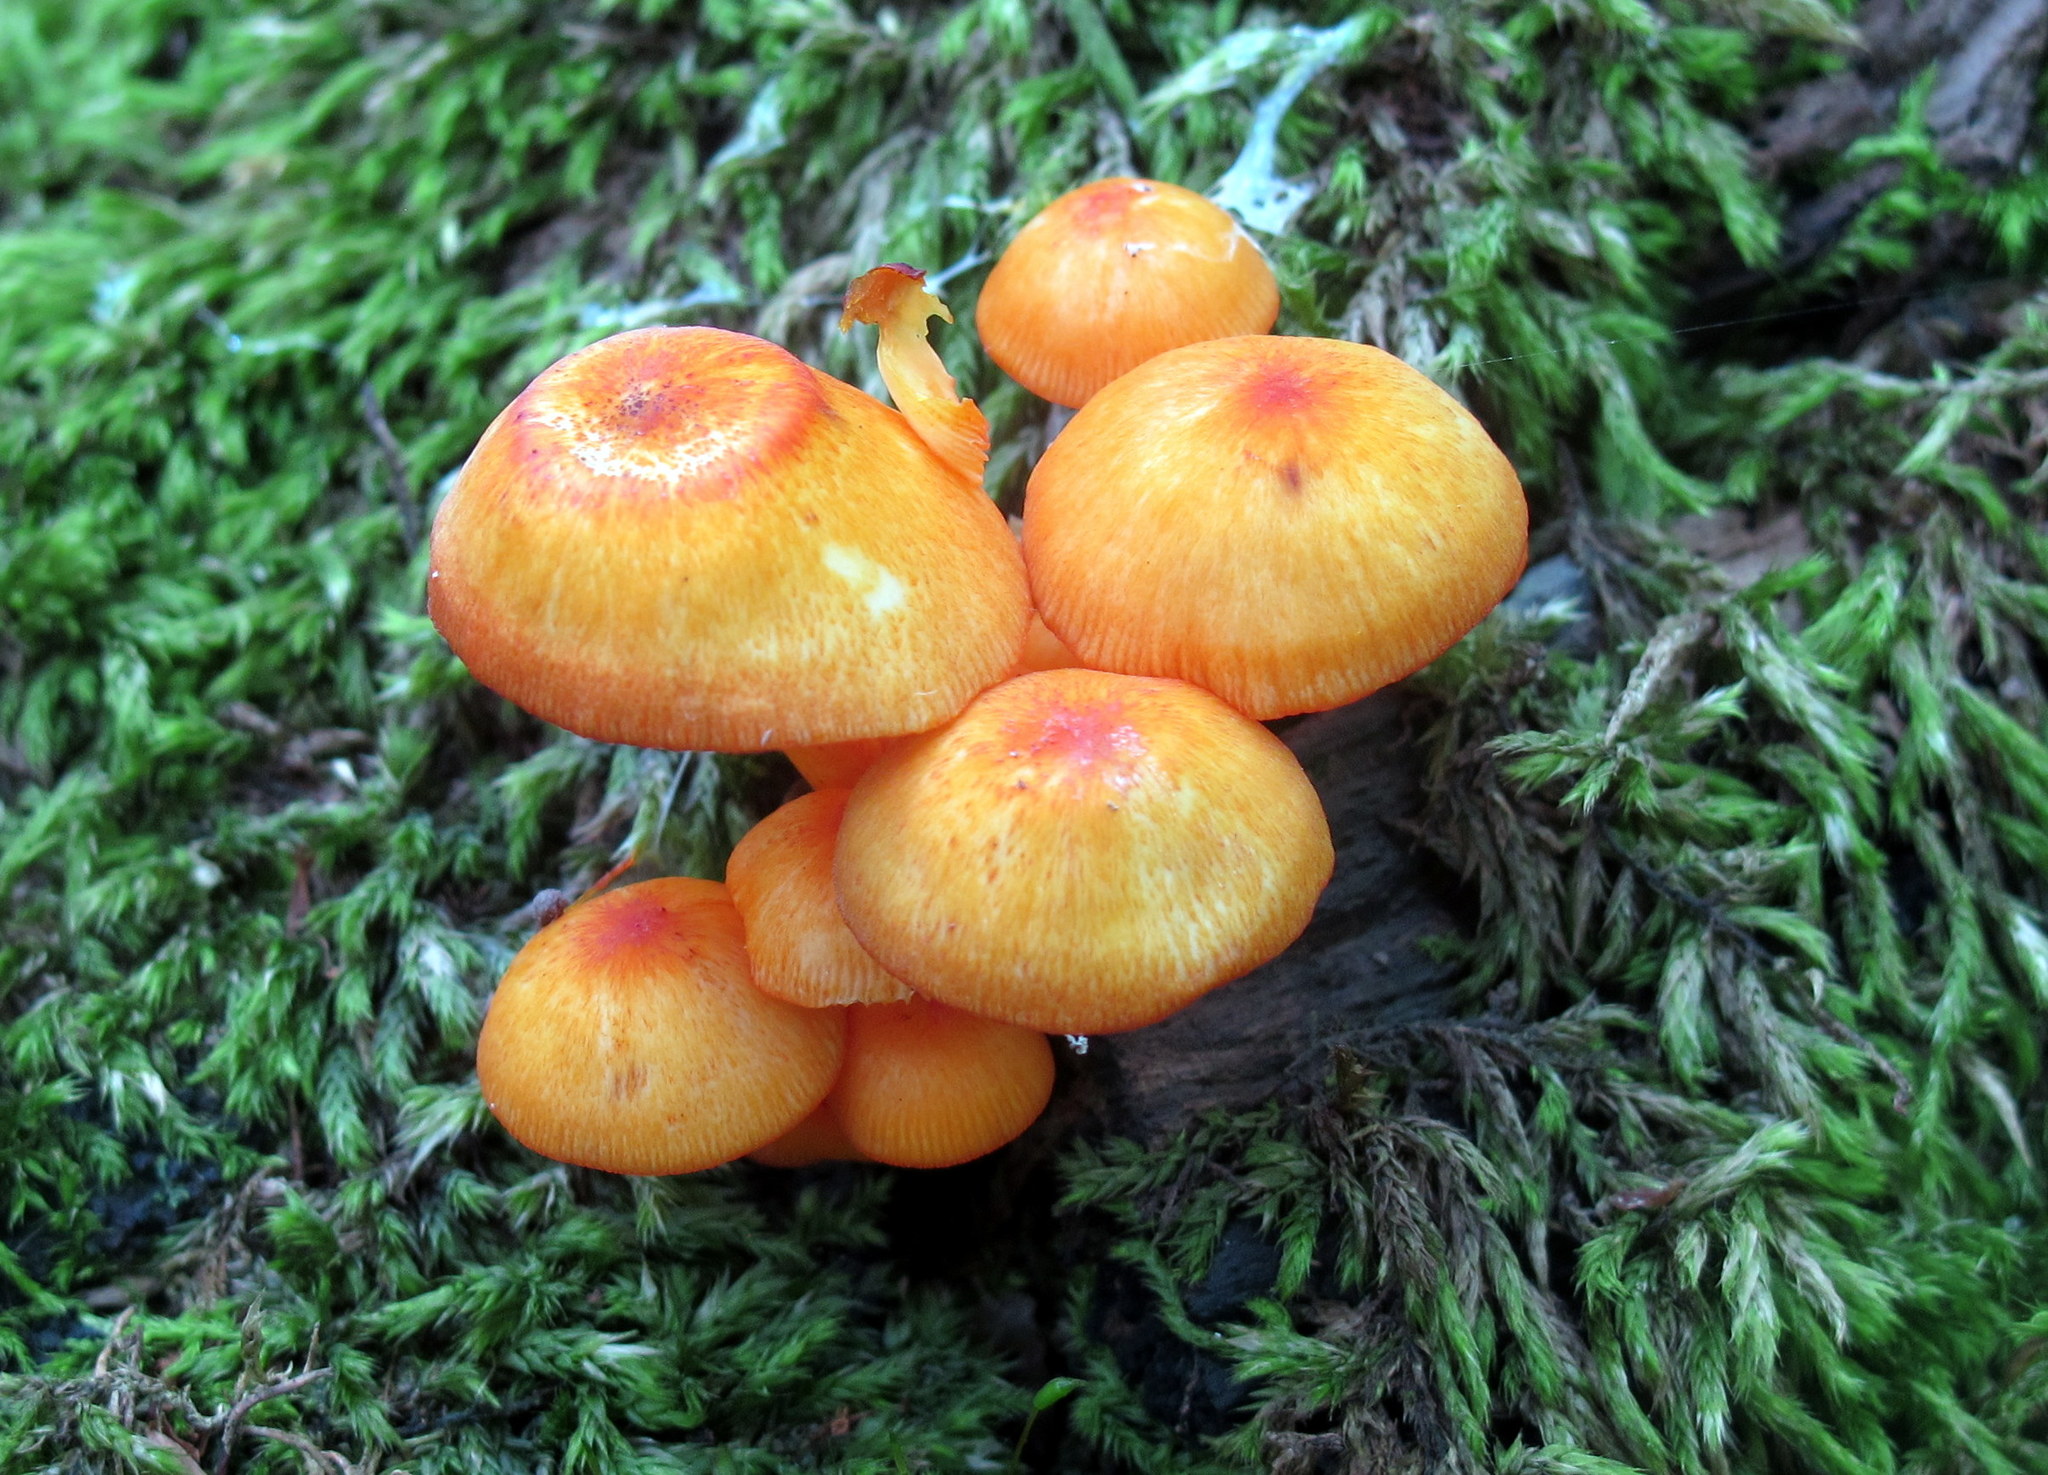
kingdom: Fungi
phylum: Basidiomycota
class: Agaricomycetes
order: Agaricales
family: Mycenaceae
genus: Mycena
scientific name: Mycena leaiana
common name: Orange mycena
